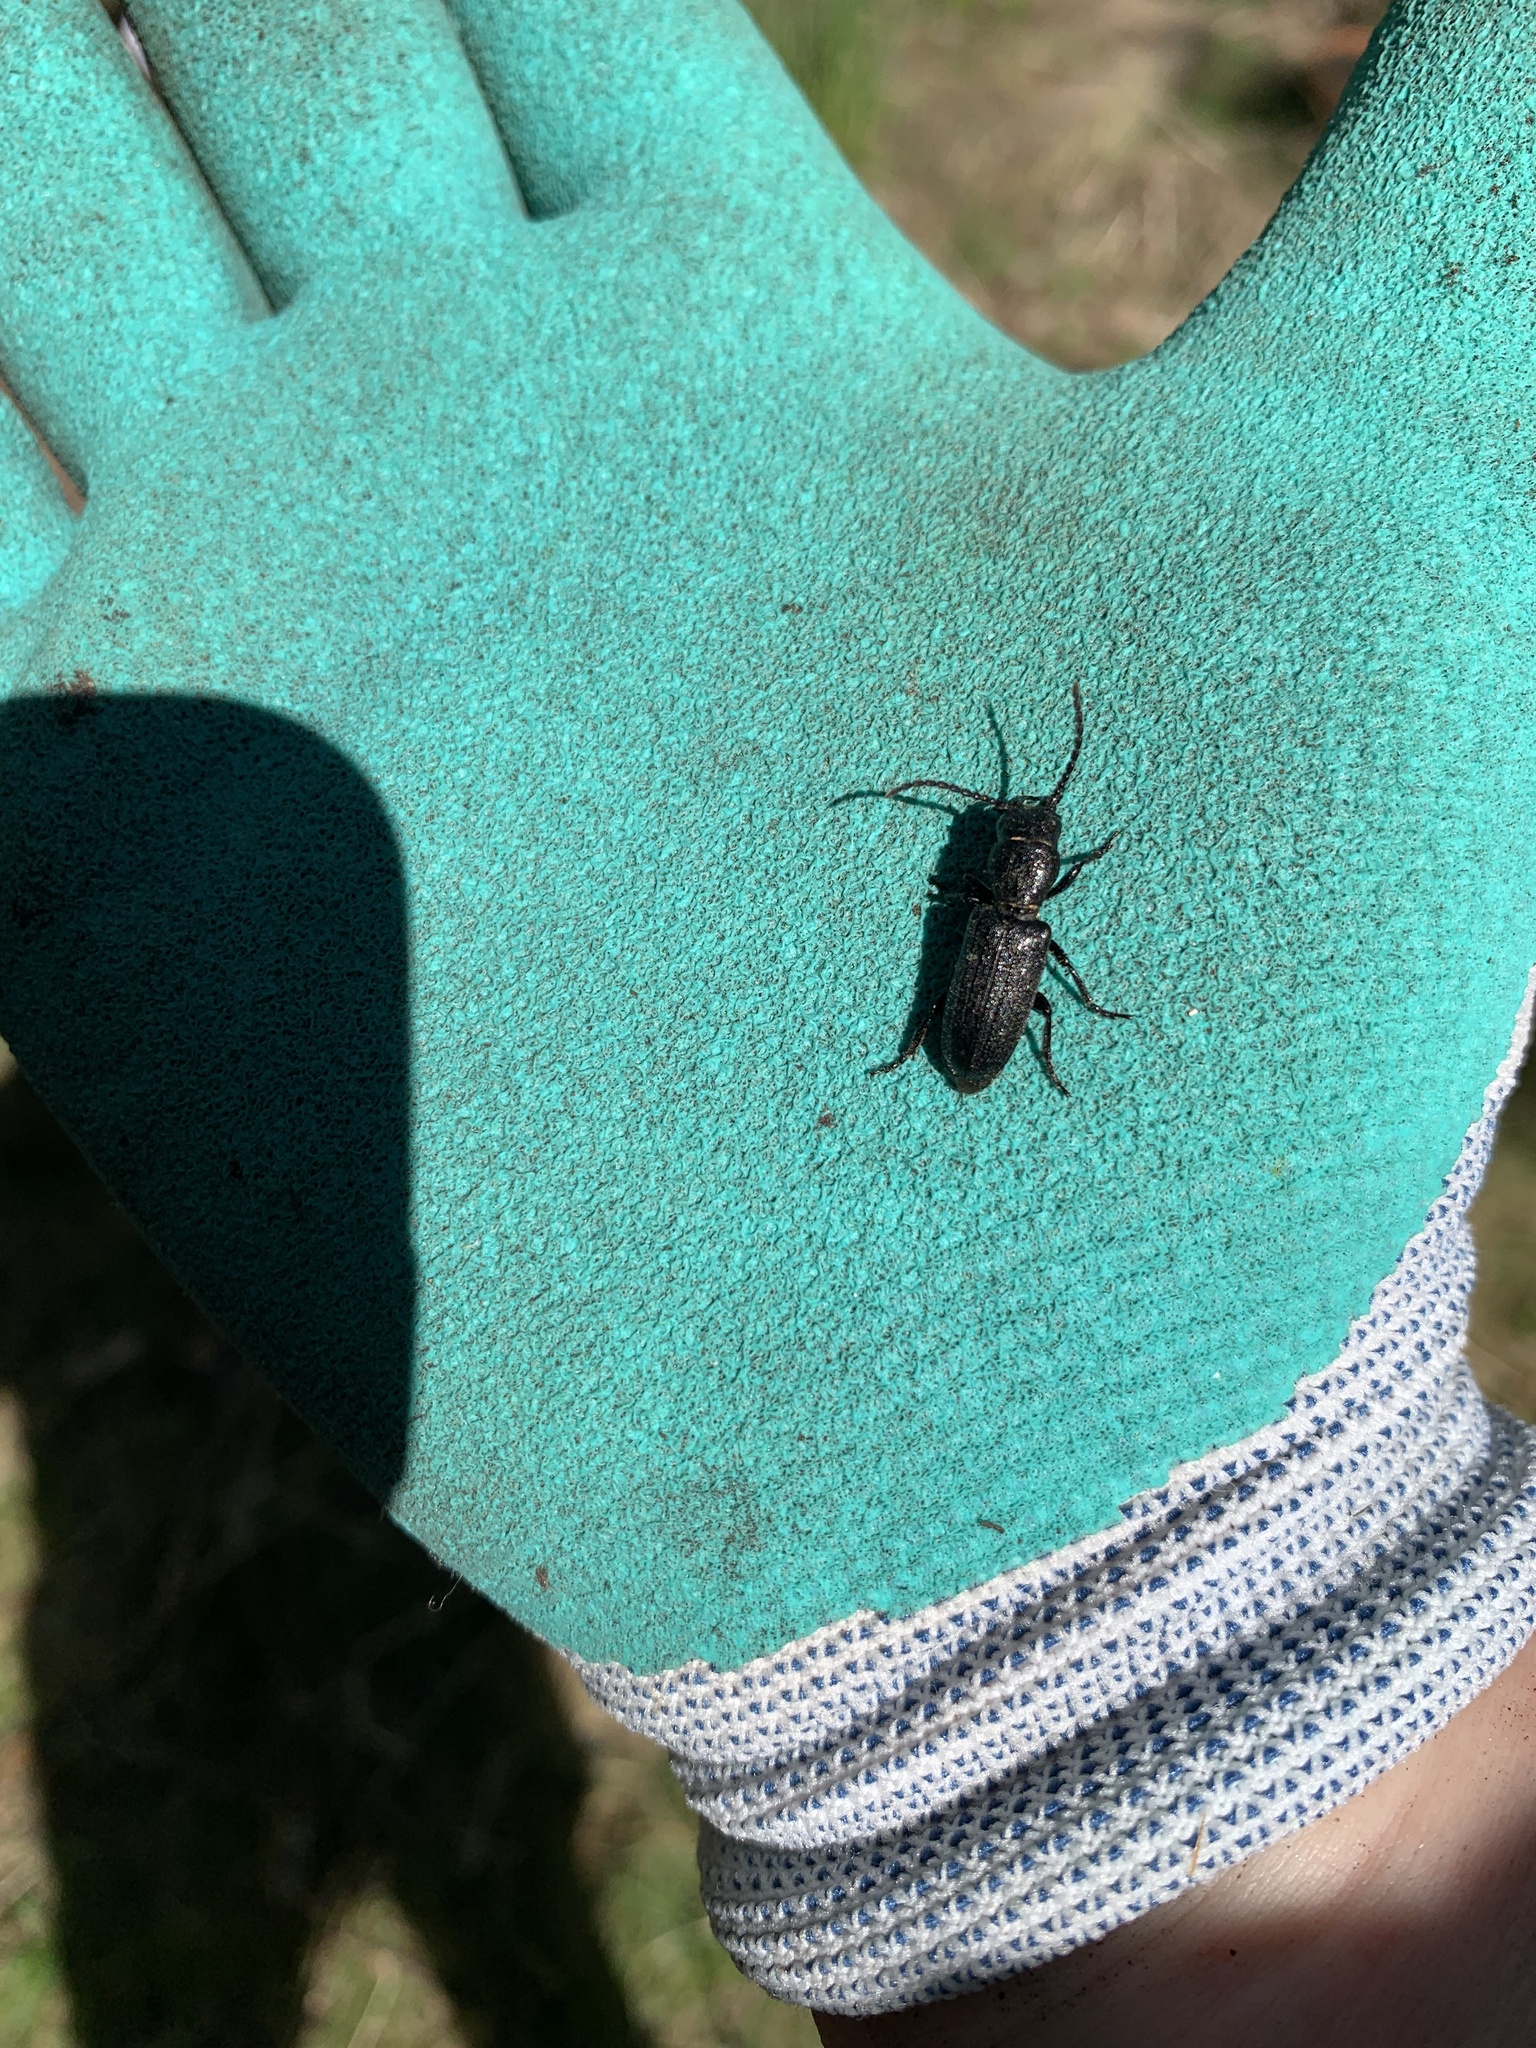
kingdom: Animalia
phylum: Arthropoda
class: Insecta
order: Coleoptera
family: Cerambycidae
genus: Neospondylis
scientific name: Neospondylis upiformis
